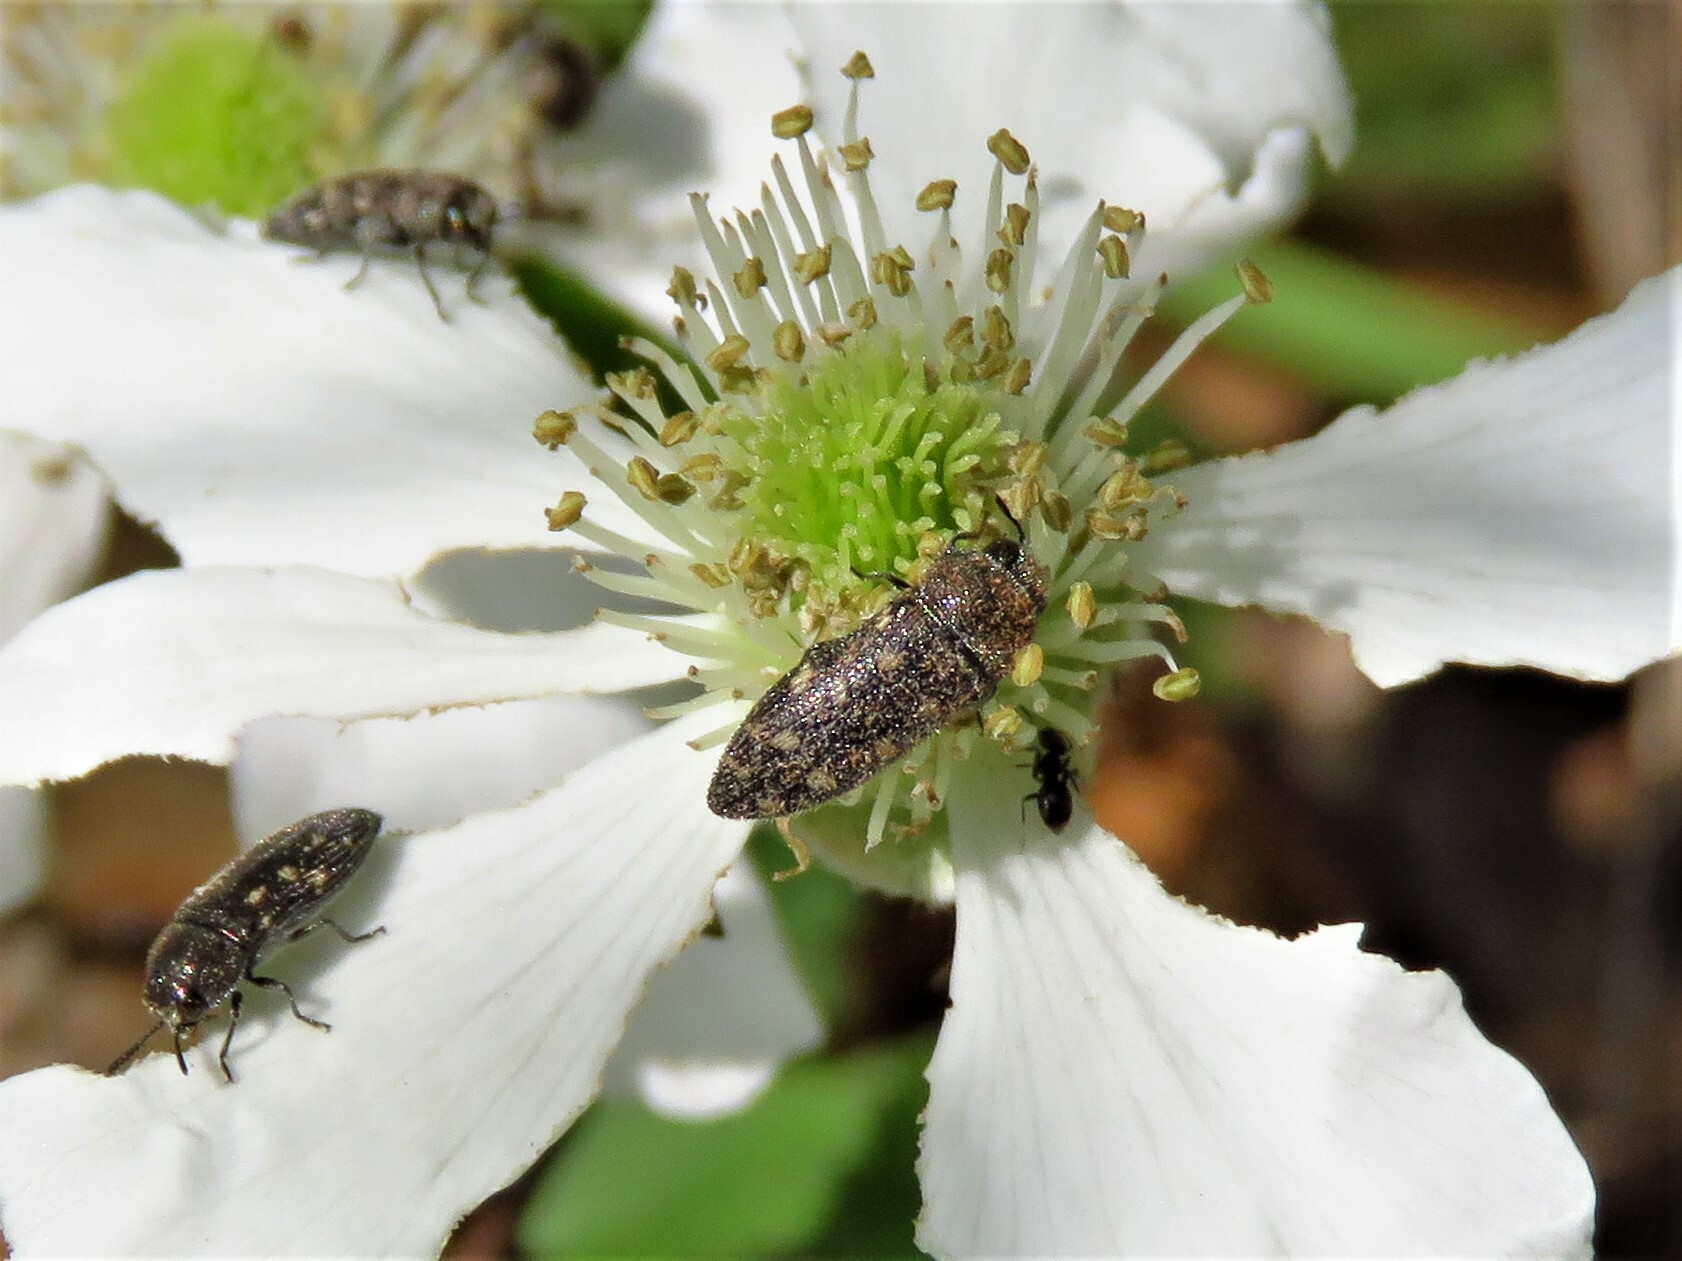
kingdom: Animalia
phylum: Arthropoda
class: Insecta
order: Coleoptera
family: Buprestidae
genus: Acmaeodera
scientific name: Acmaeodera tubulus
